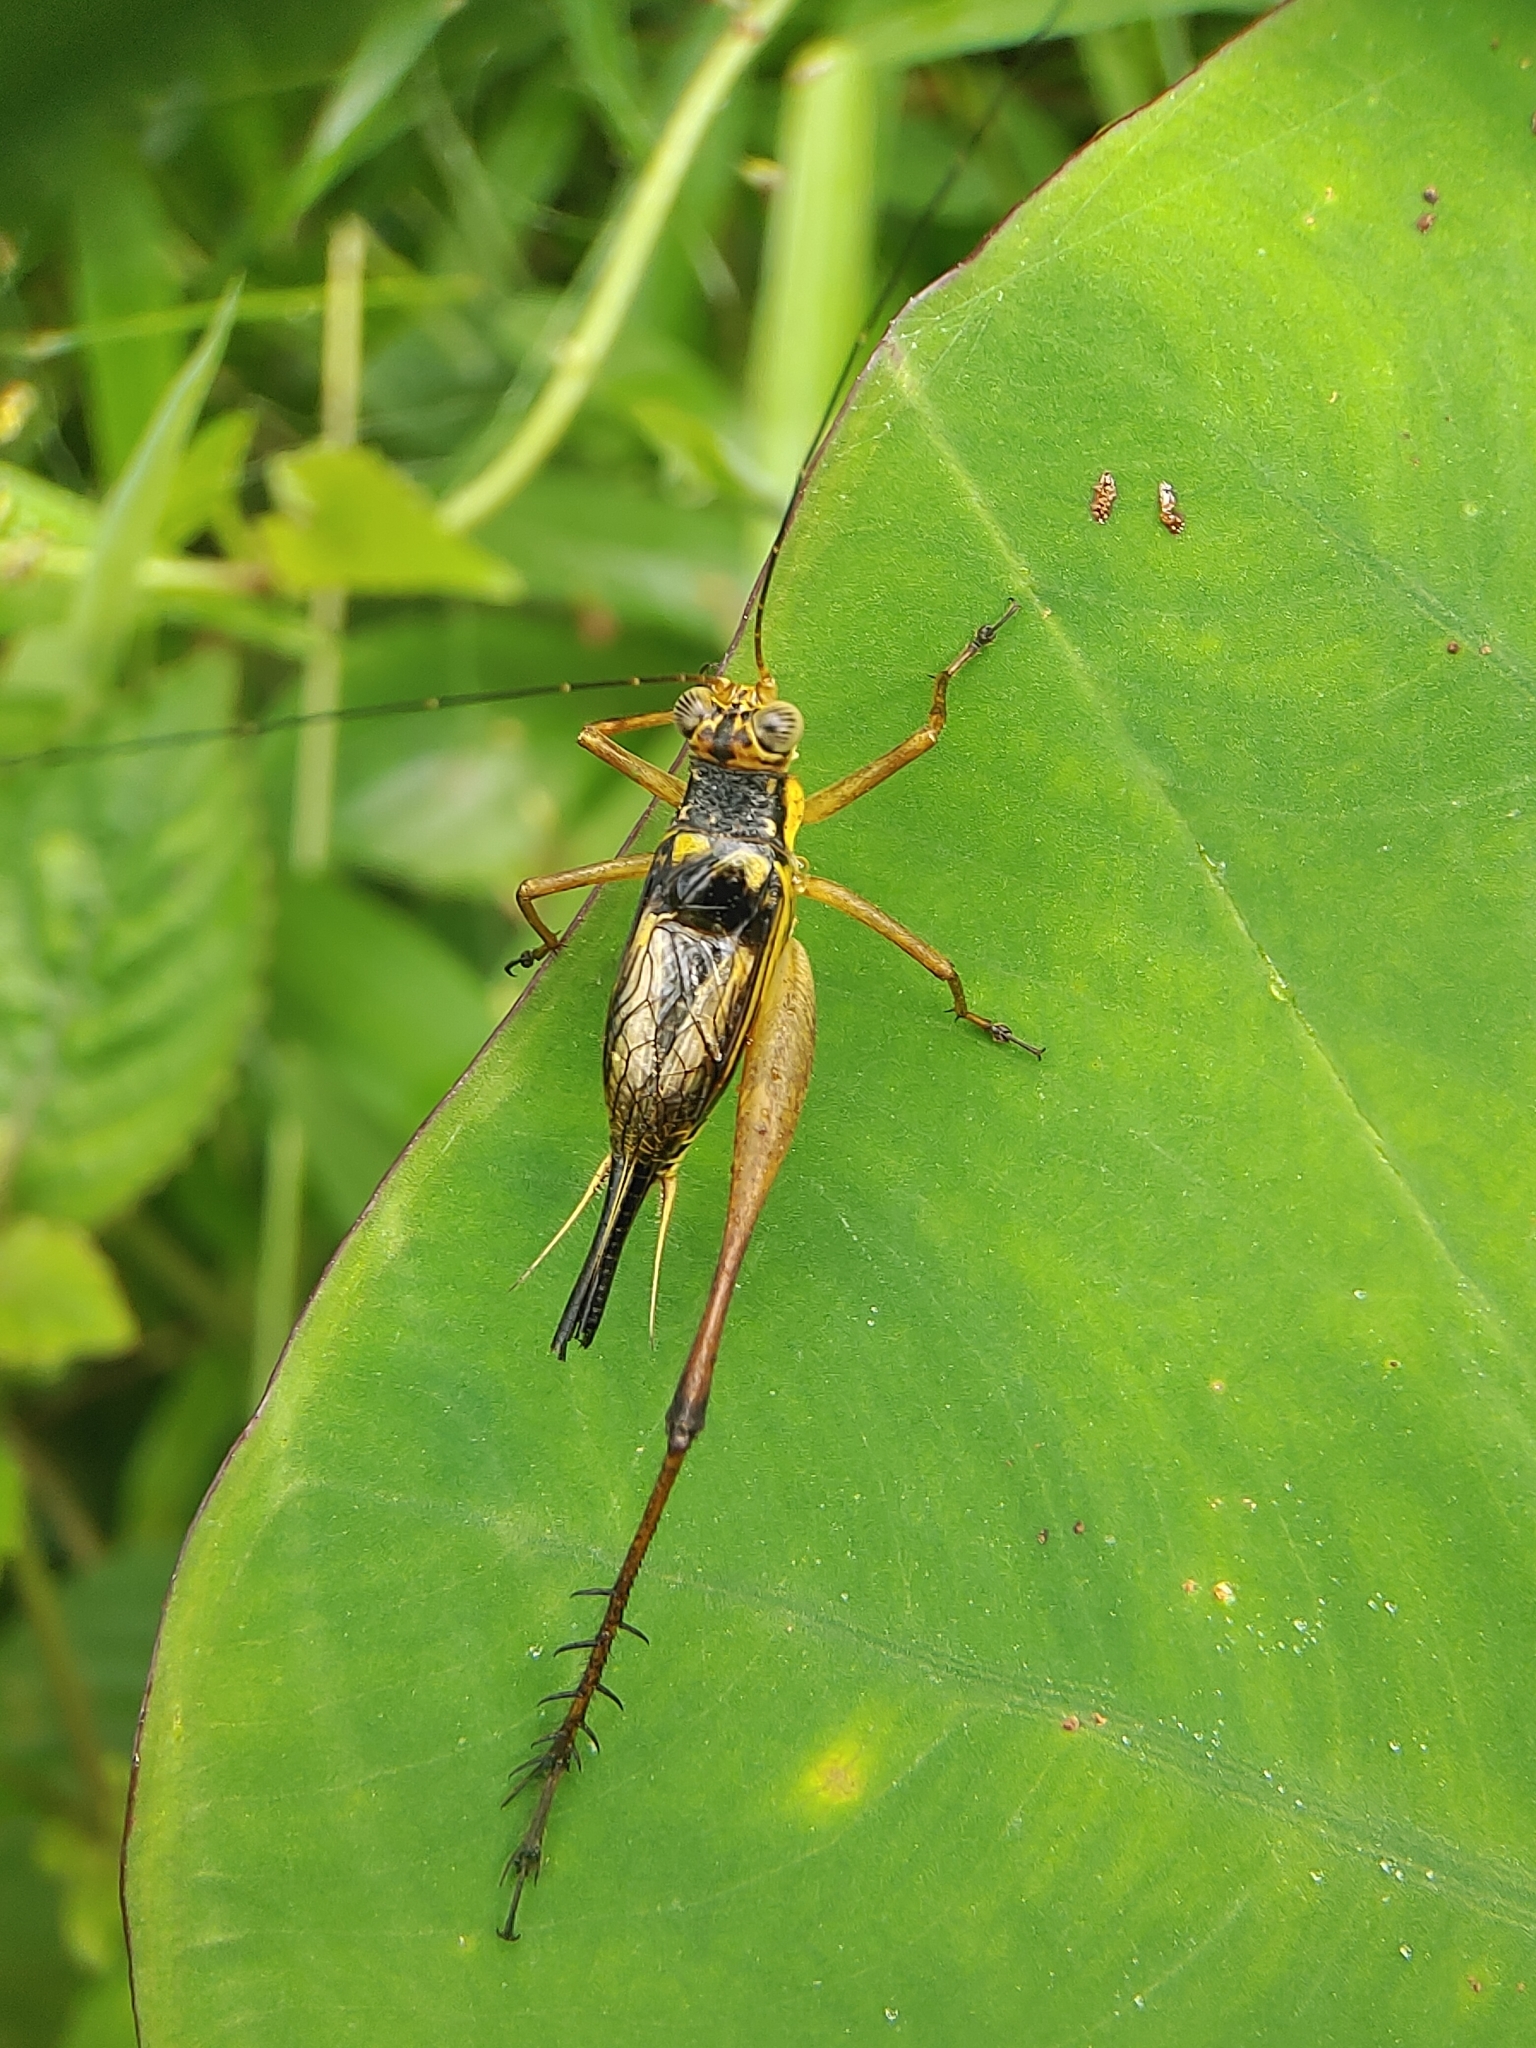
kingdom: Animalia
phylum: Arthropoda
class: Insecta
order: Orthoptera
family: Gryllidae
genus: Nisitrus
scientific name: Nisitrus malaya
